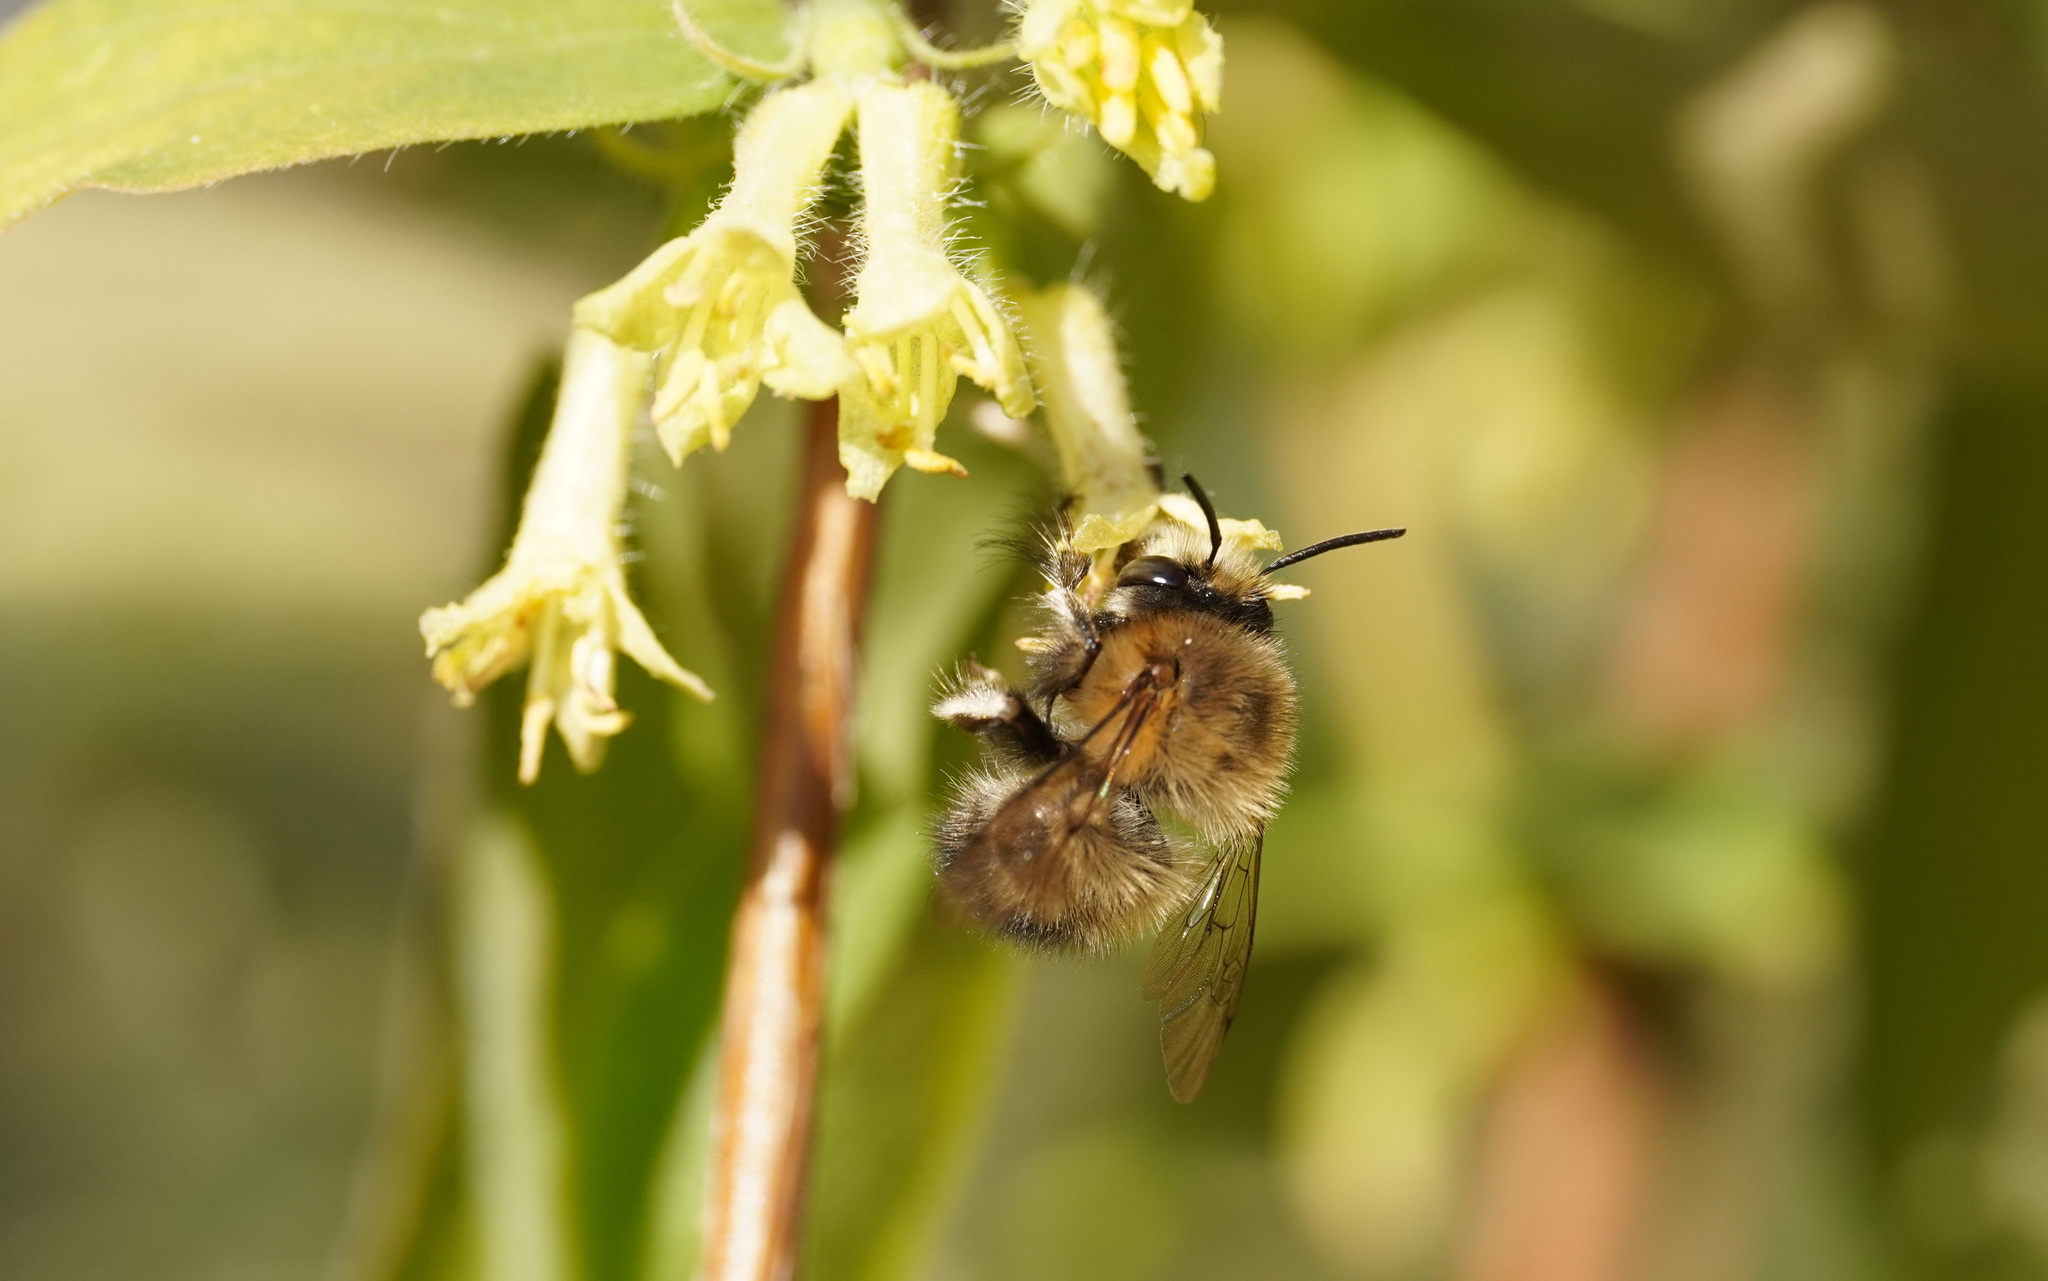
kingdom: Animalia
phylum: Arthropoda
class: Insecta
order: Hymenoptera
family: Apidae
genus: Anthophora
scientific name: Anthophora plumipes
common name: Hairy-footed flower bee
